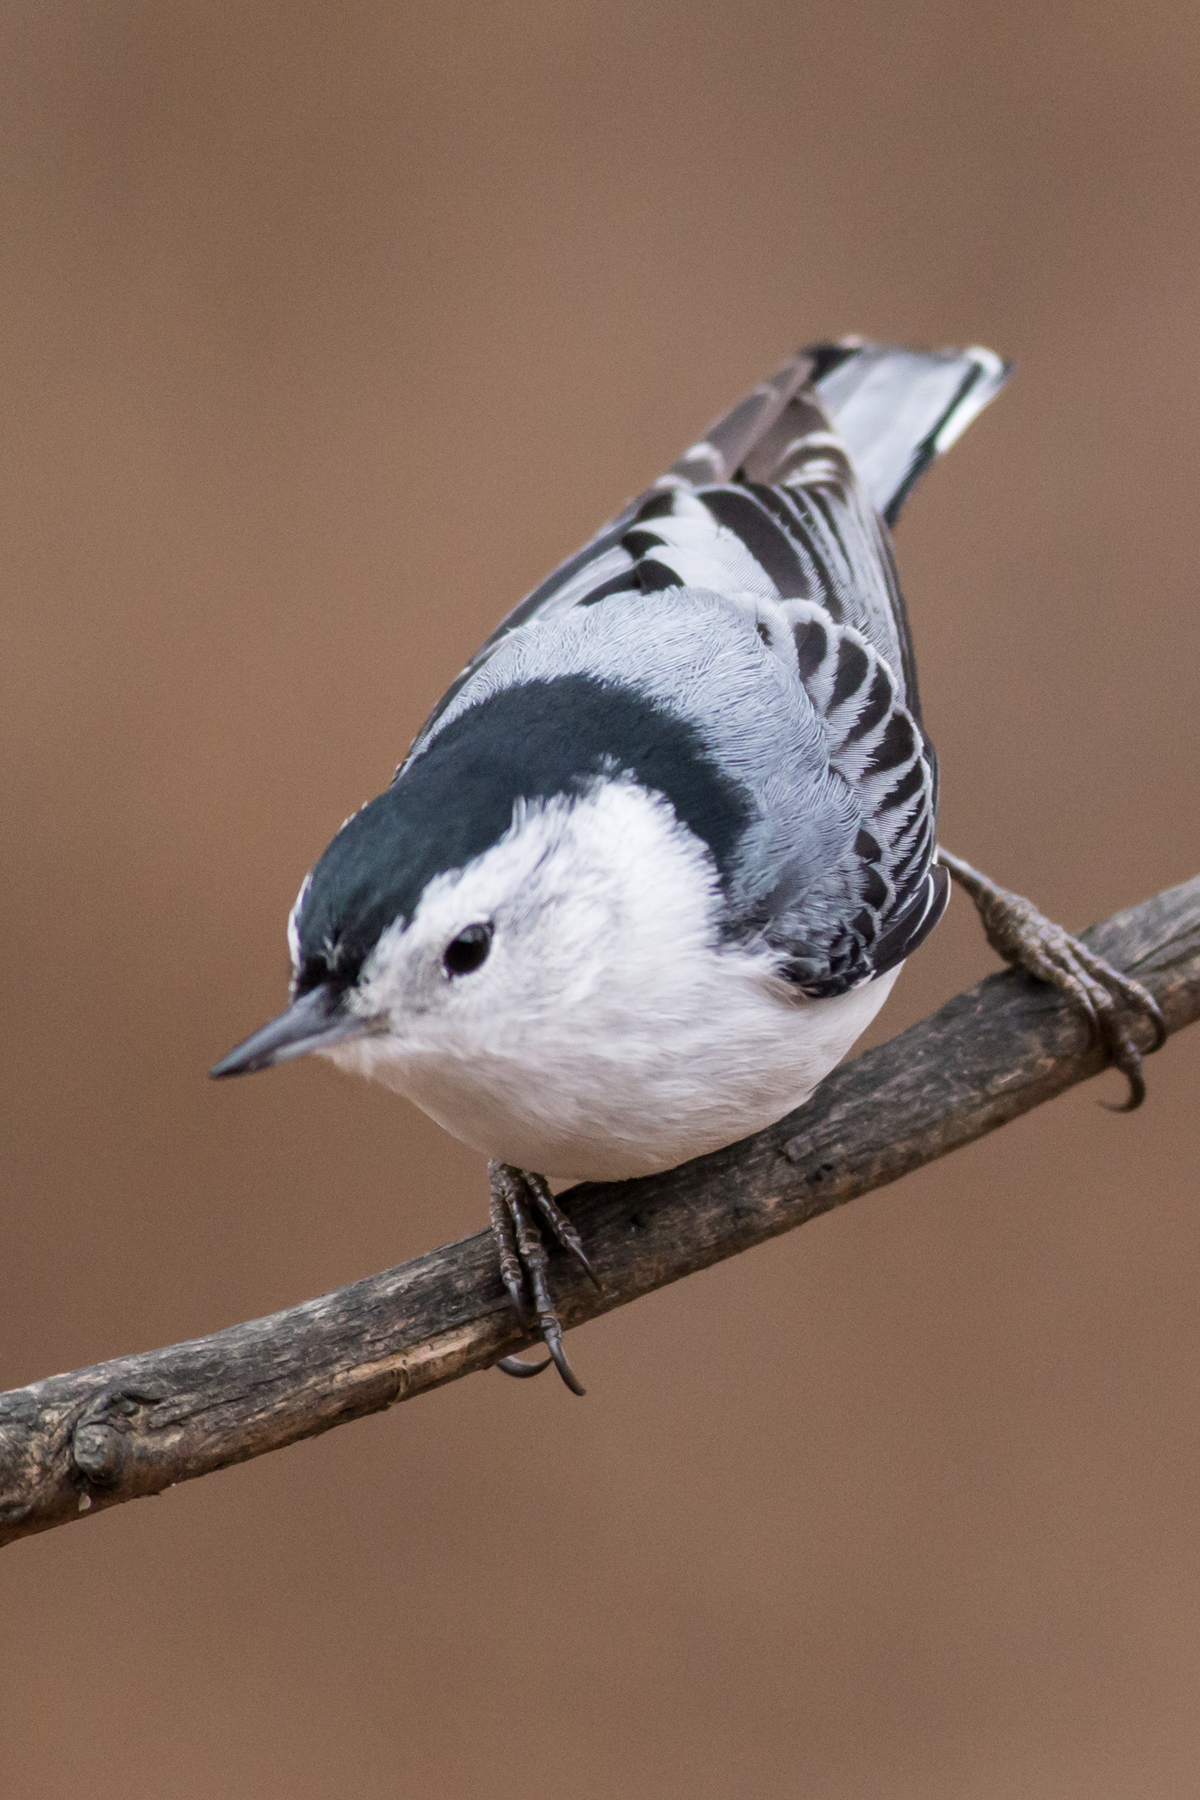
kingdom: Animalia
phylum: Chordata
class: Aves
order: Passeriformes
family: Sittidae
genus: Sitta
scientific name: Sitta carolinensis
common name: White-breasted nuthatch
